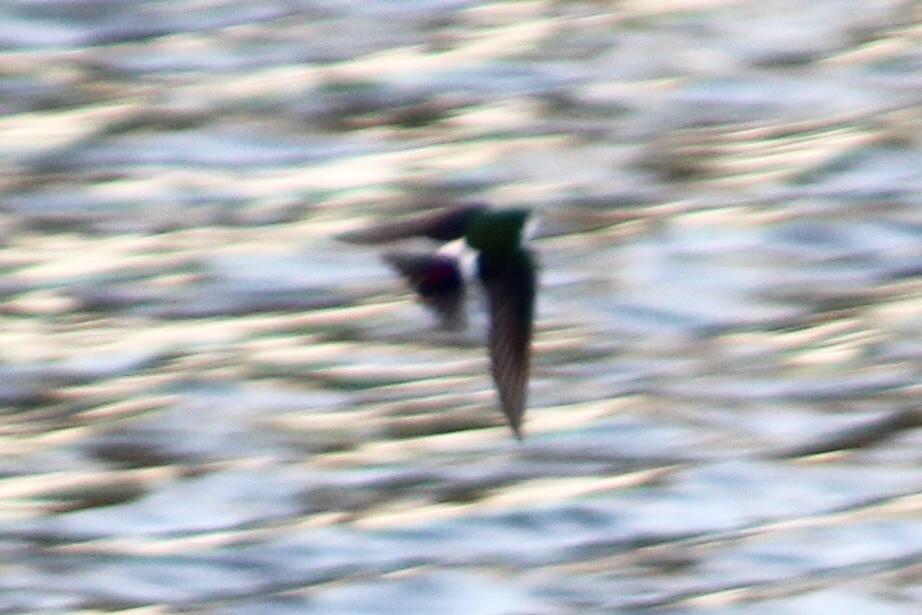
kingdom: Animalia
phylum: Chordata
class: Aves
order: Passeriformes
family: Hirundinidae
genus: Tachycineta
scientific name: Tachycineta thalassina
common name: Violet-green swallow
